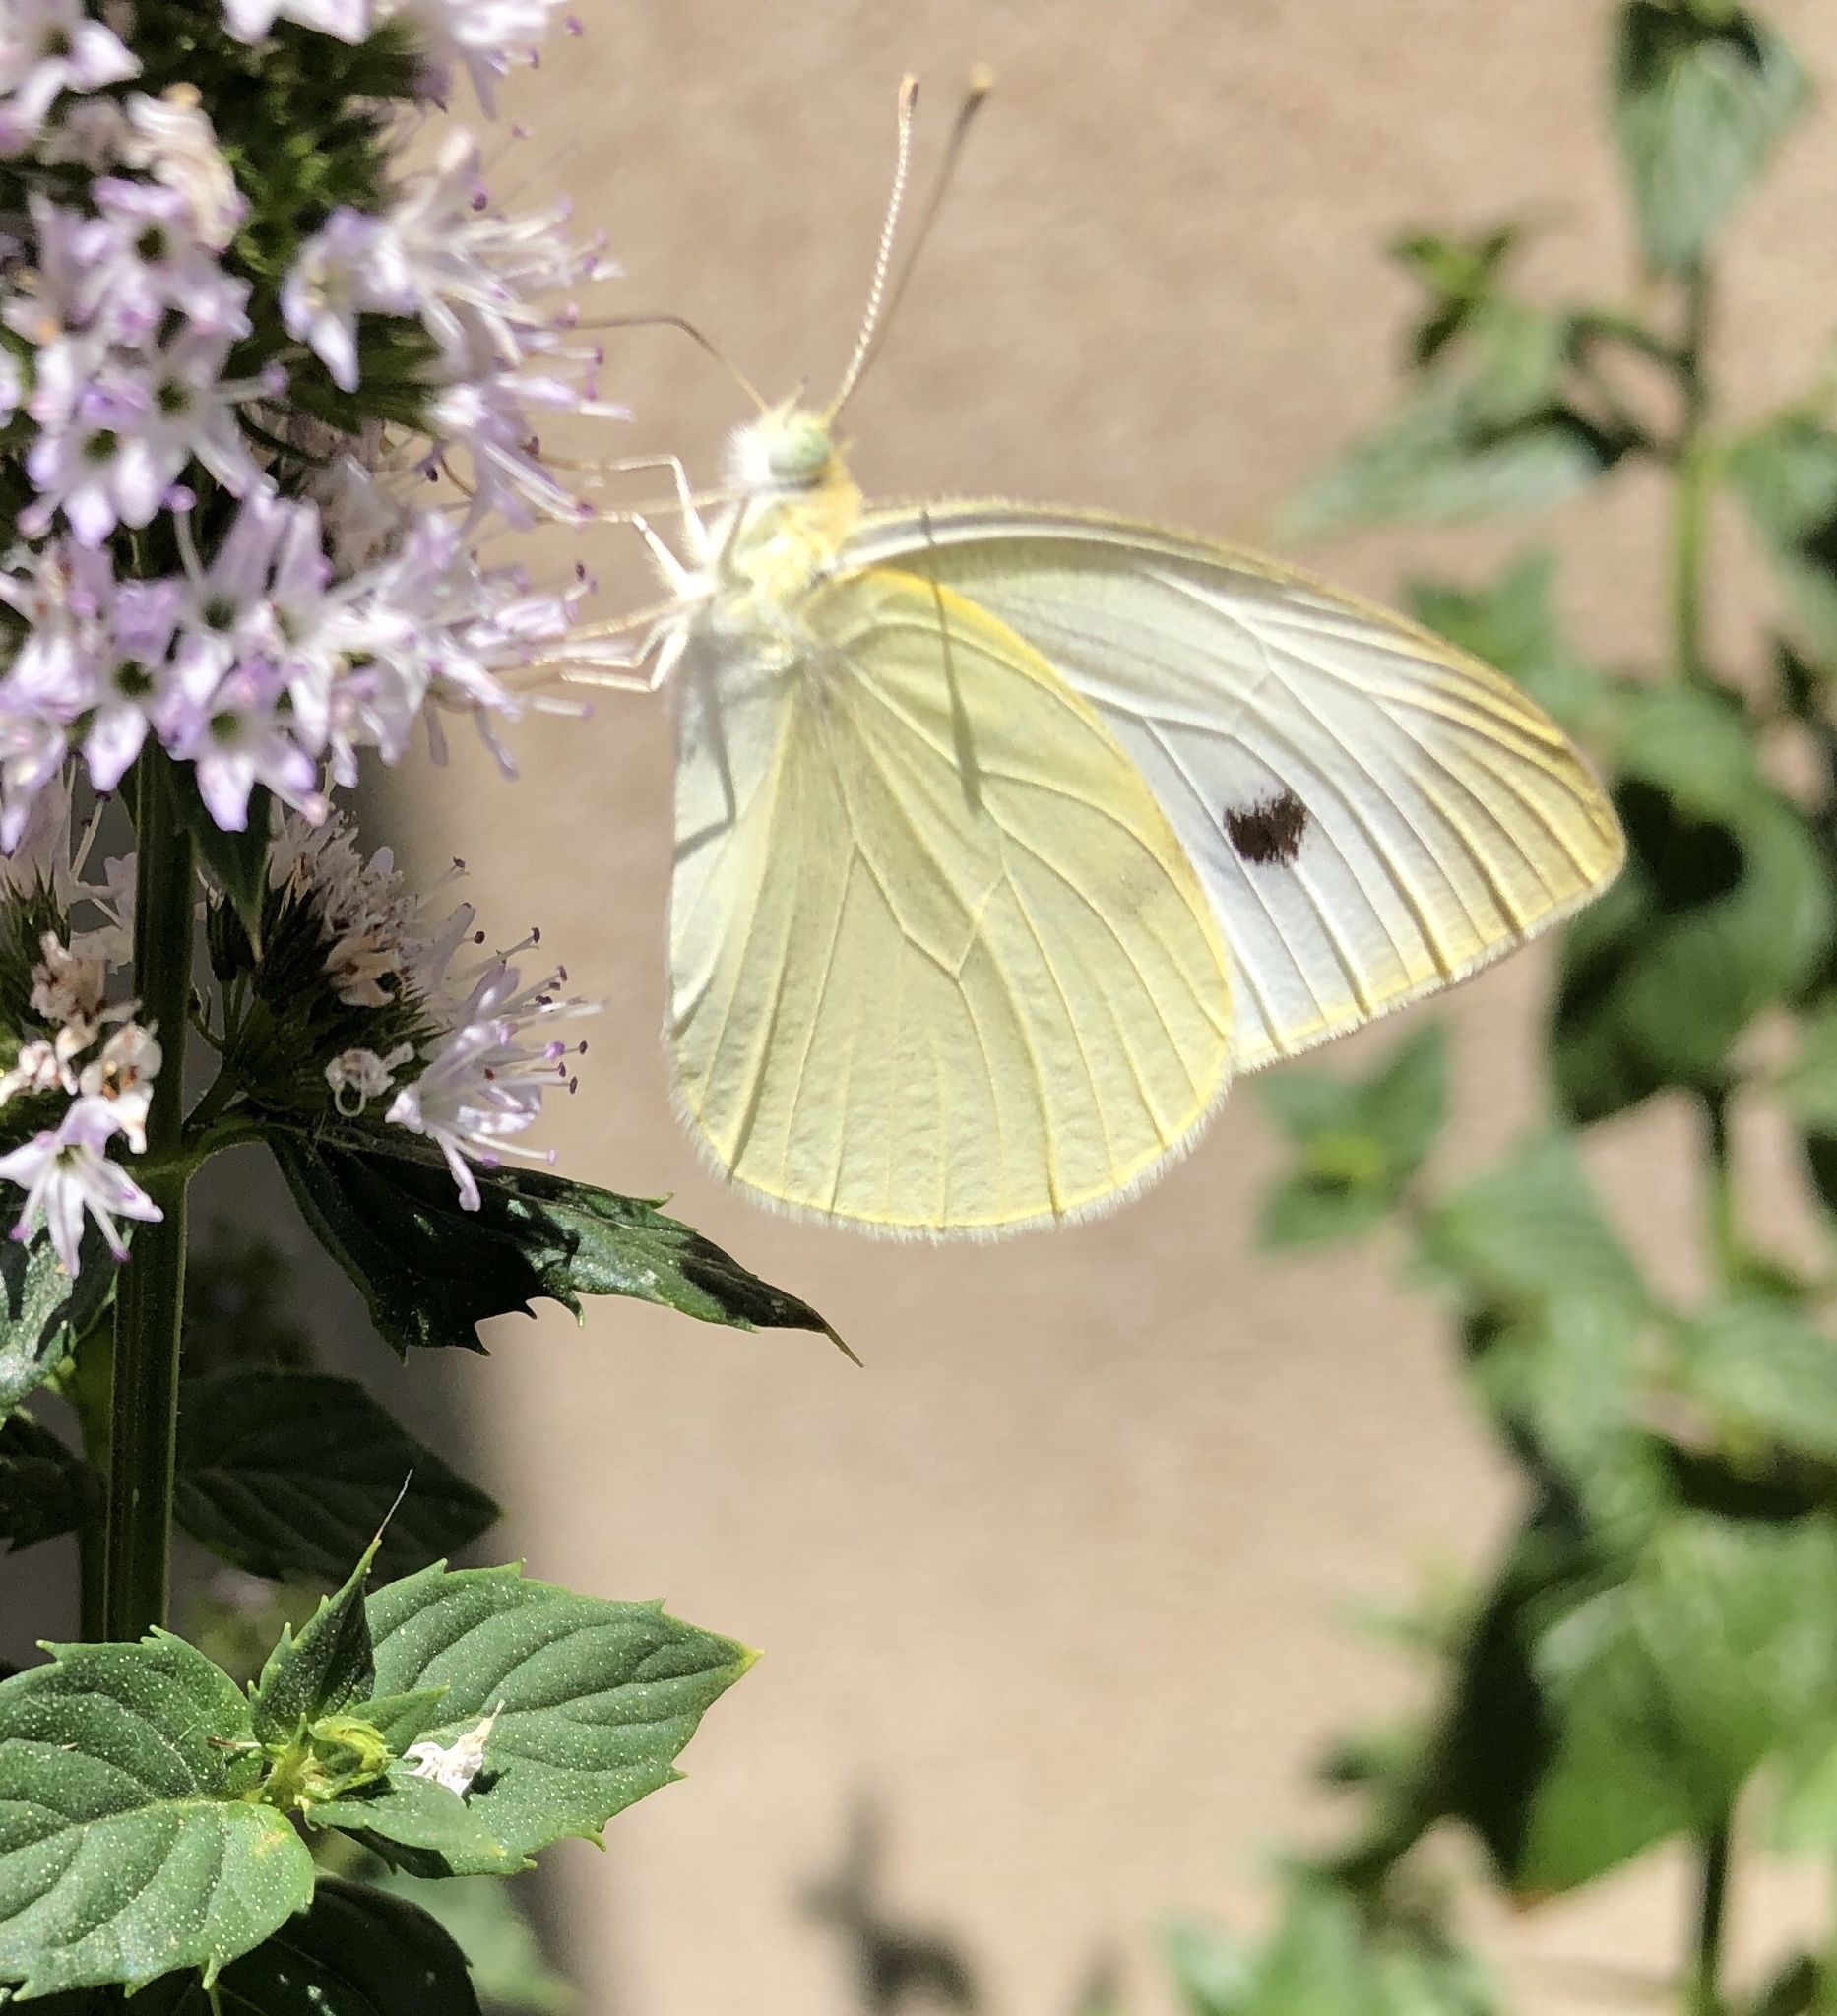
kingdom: Animalia
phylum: Arthropoda
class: Insecta
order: Lepidoptera
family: Pieridae
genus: Pieris
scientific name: Pieris rapae
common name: Small white
